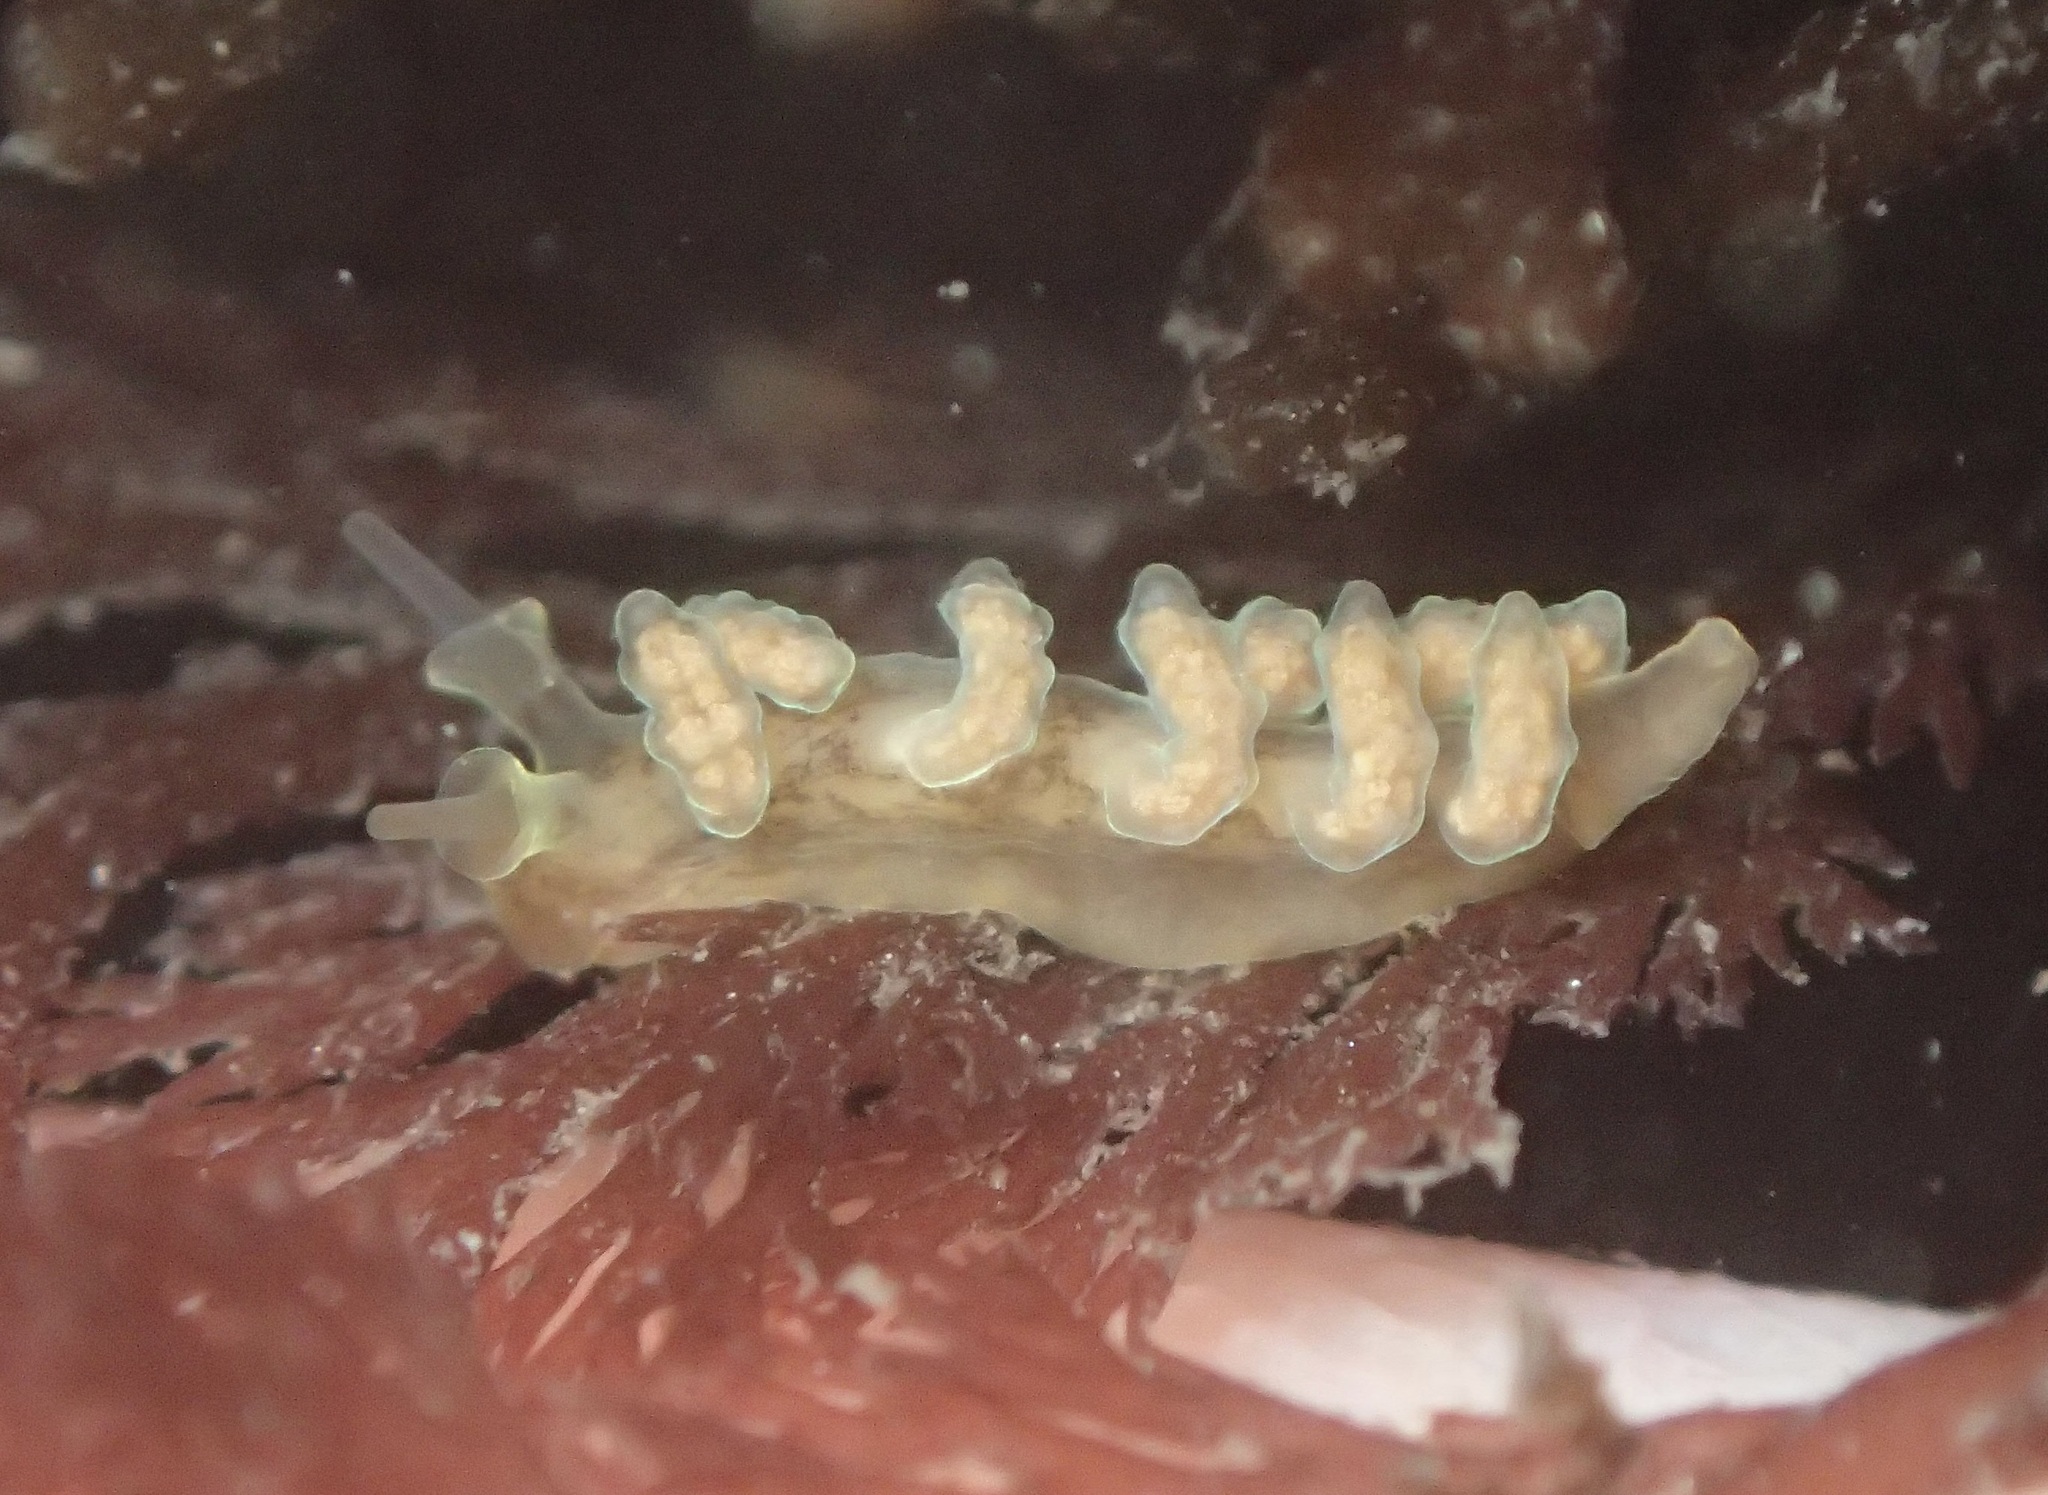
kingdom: Animalia
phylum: Mollusca
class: Gastropoda
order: Nudibranchia
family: Dotidae
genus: Doto
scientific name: Doto columbiana
